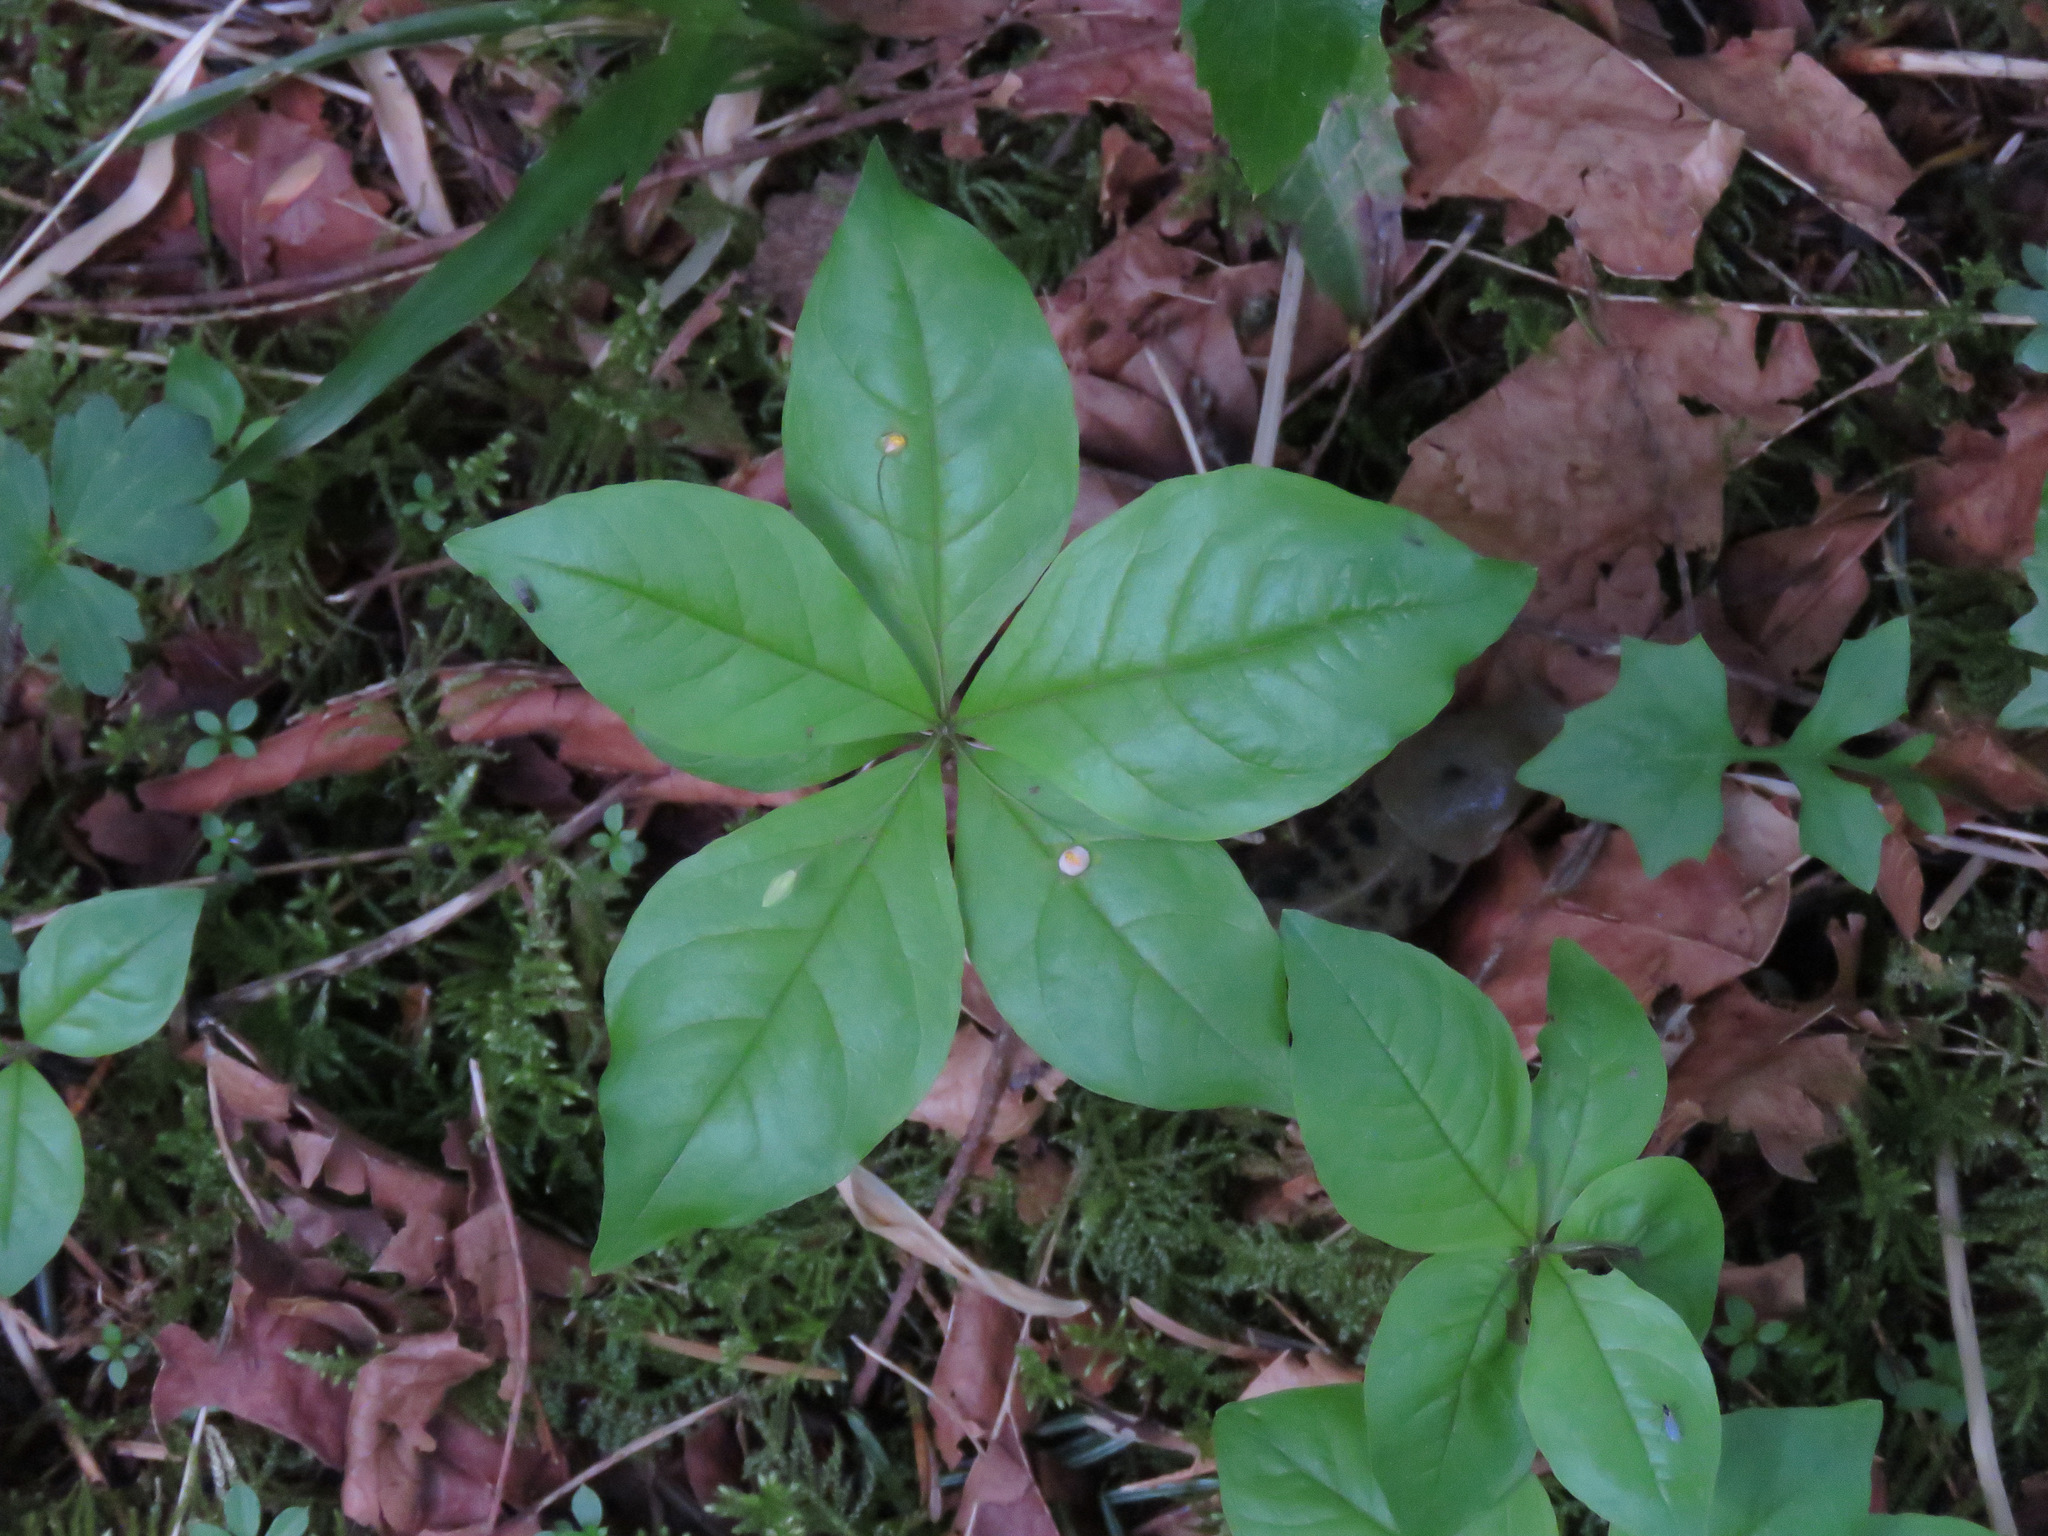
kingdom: Plantae
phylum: Tracheophyta
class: Magnoliopsida
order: Ericales
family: Primulaceae
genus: Lysimachia
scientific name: Lysimachia latifolia
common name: Pacific starflower
